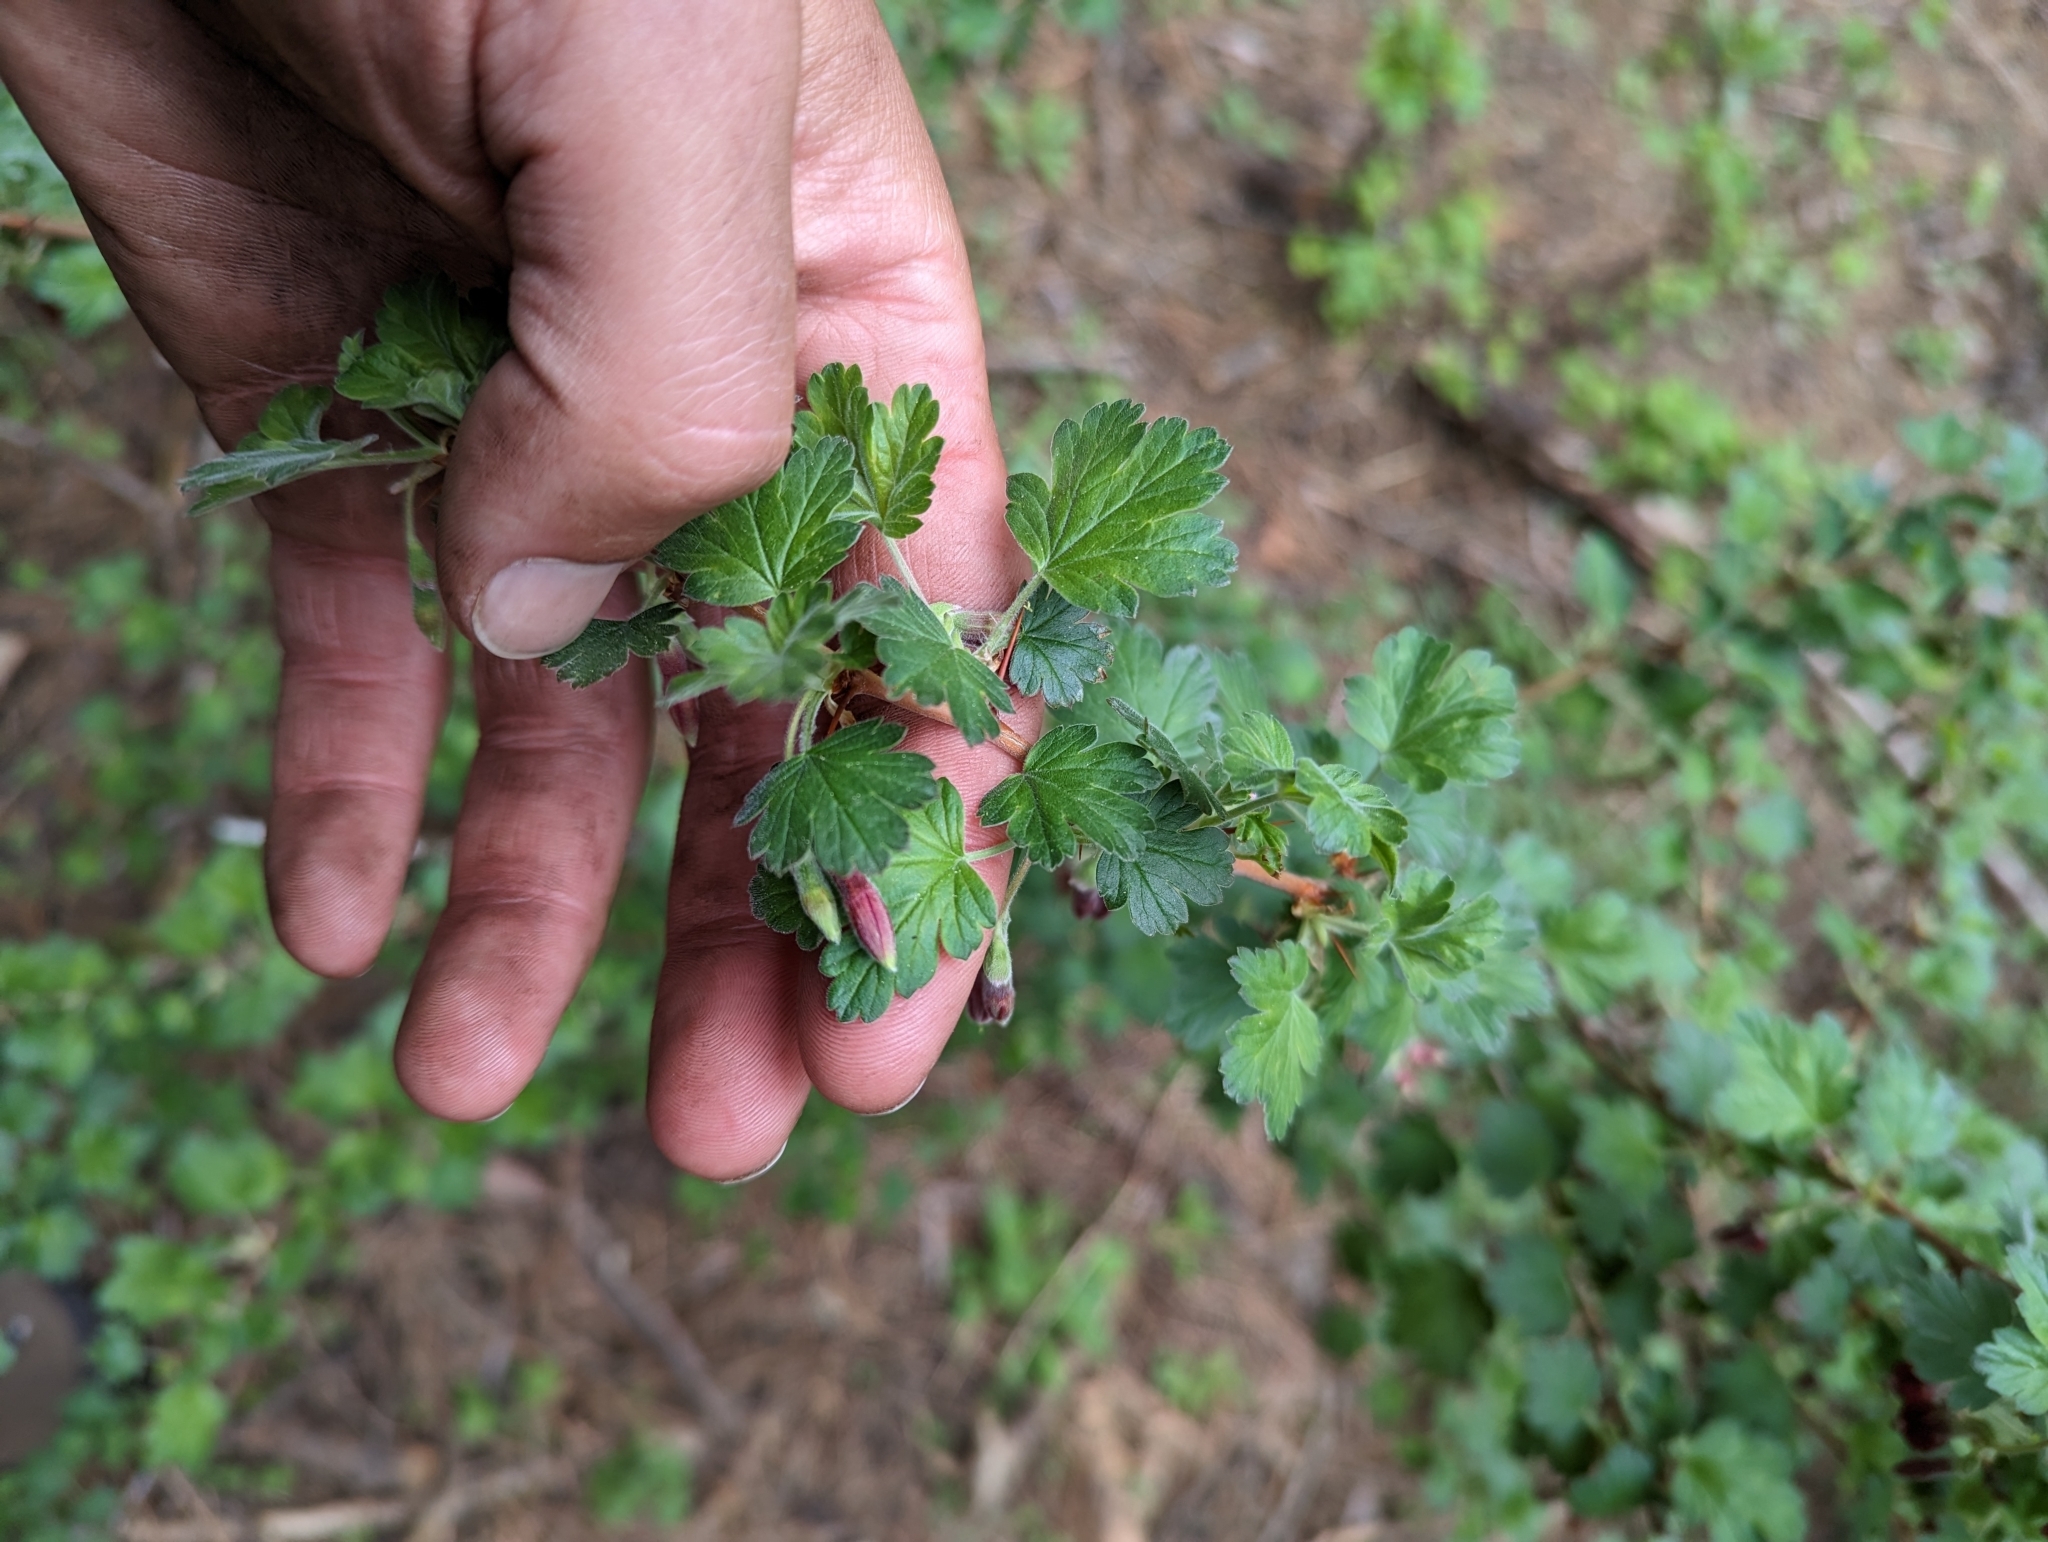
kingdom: Plantae
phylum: Tracheophyta
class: Magnoliopsida
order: Saxifragales
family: Grossulariaceae
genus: Ribes
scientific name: Ribes roezlii
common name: Sierra gooseberry
